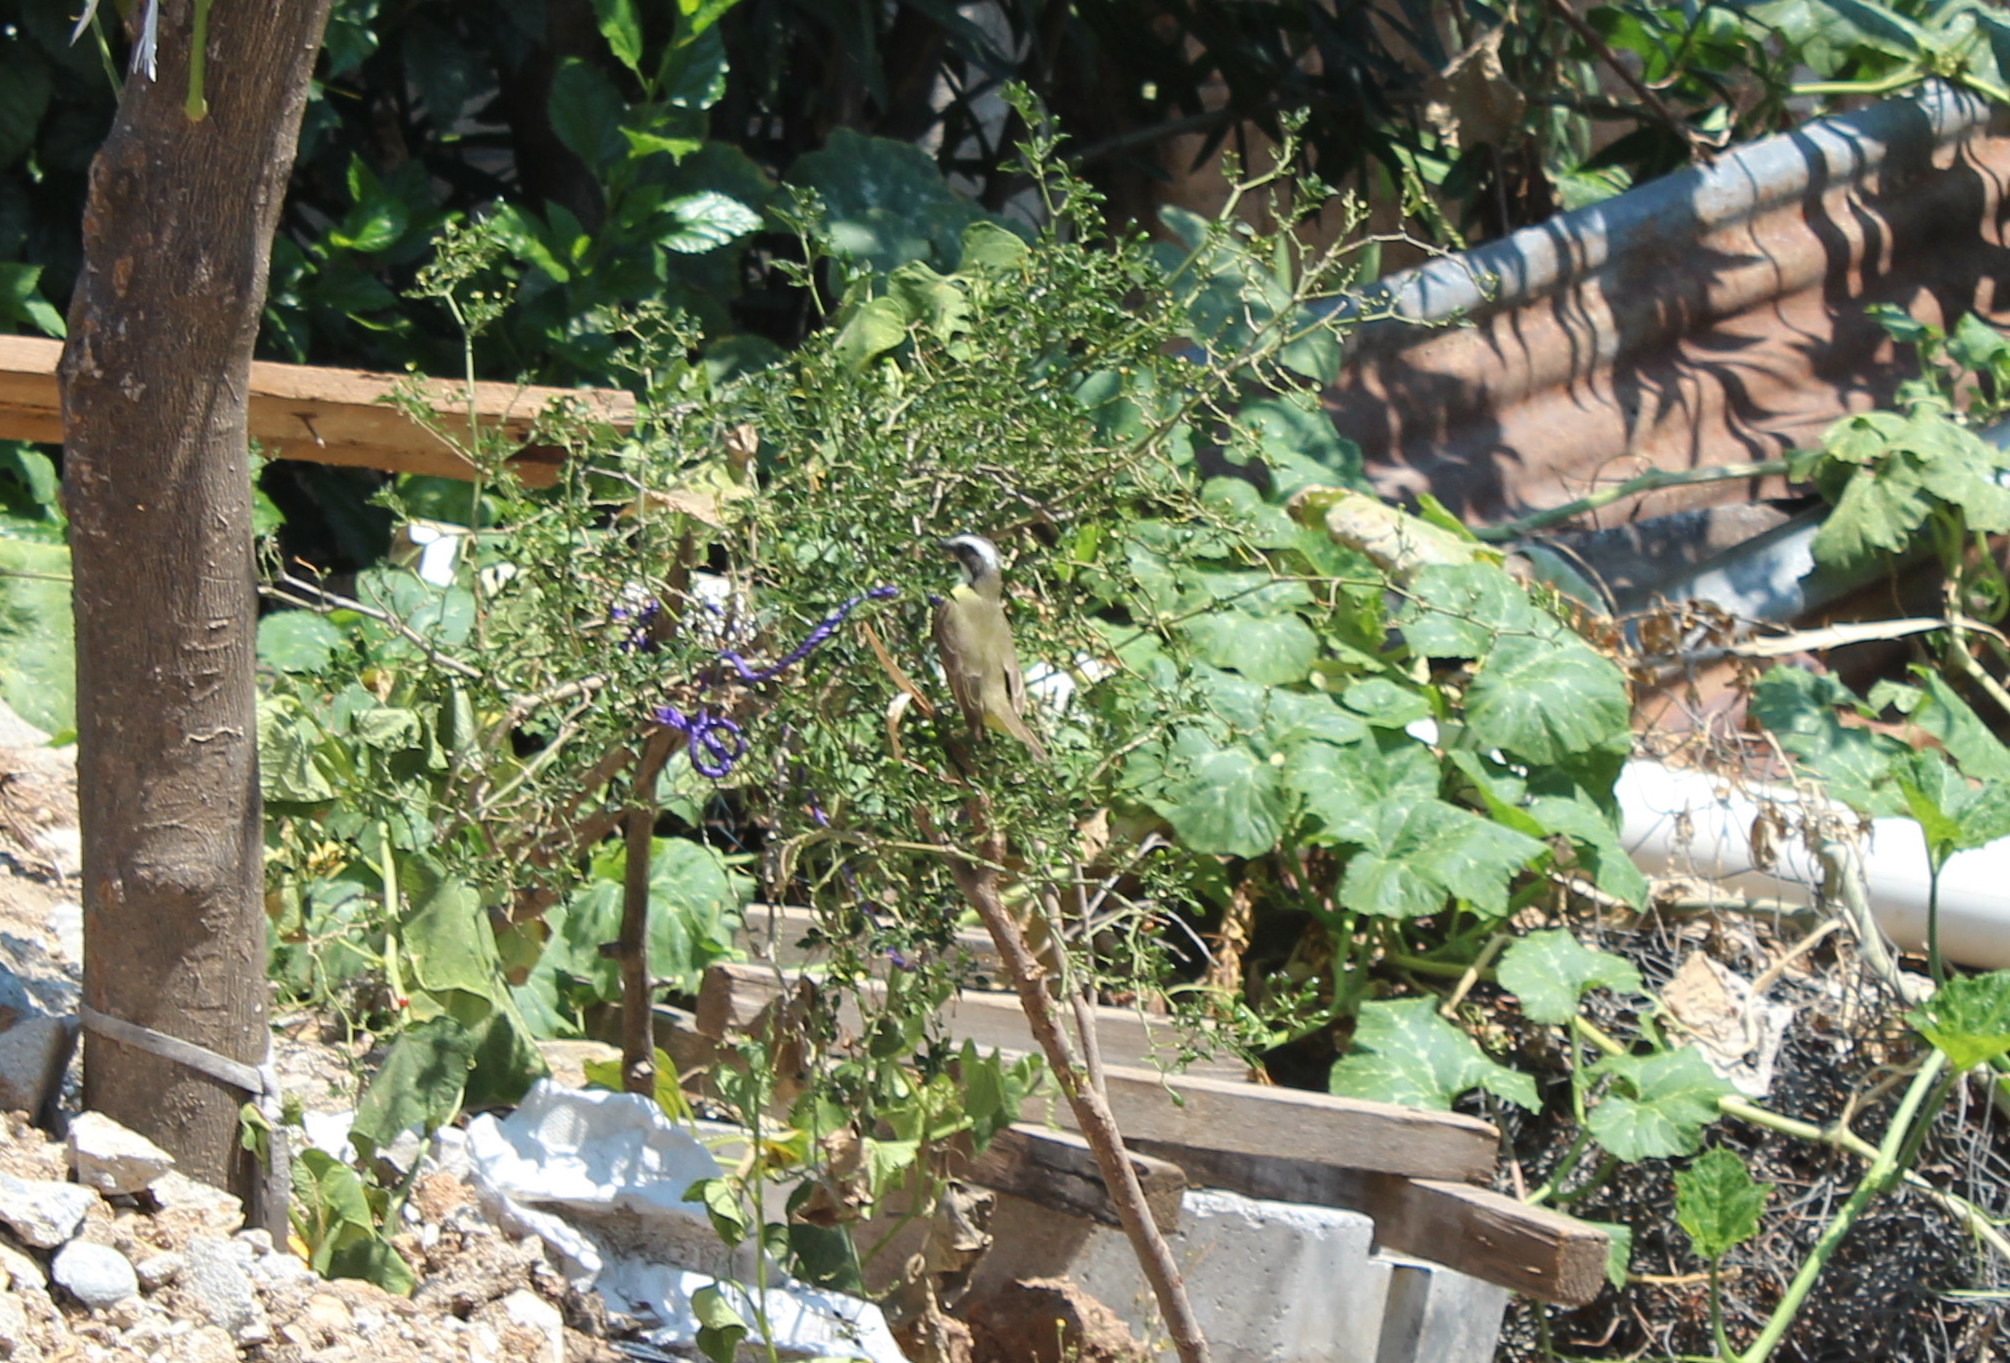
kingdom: Animalia
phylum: Chordata
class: Aves
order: Passeriformes
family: Tyrannidae
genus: Myiozetetes
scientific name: Myiozetetes similis
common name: Social flycatcher
